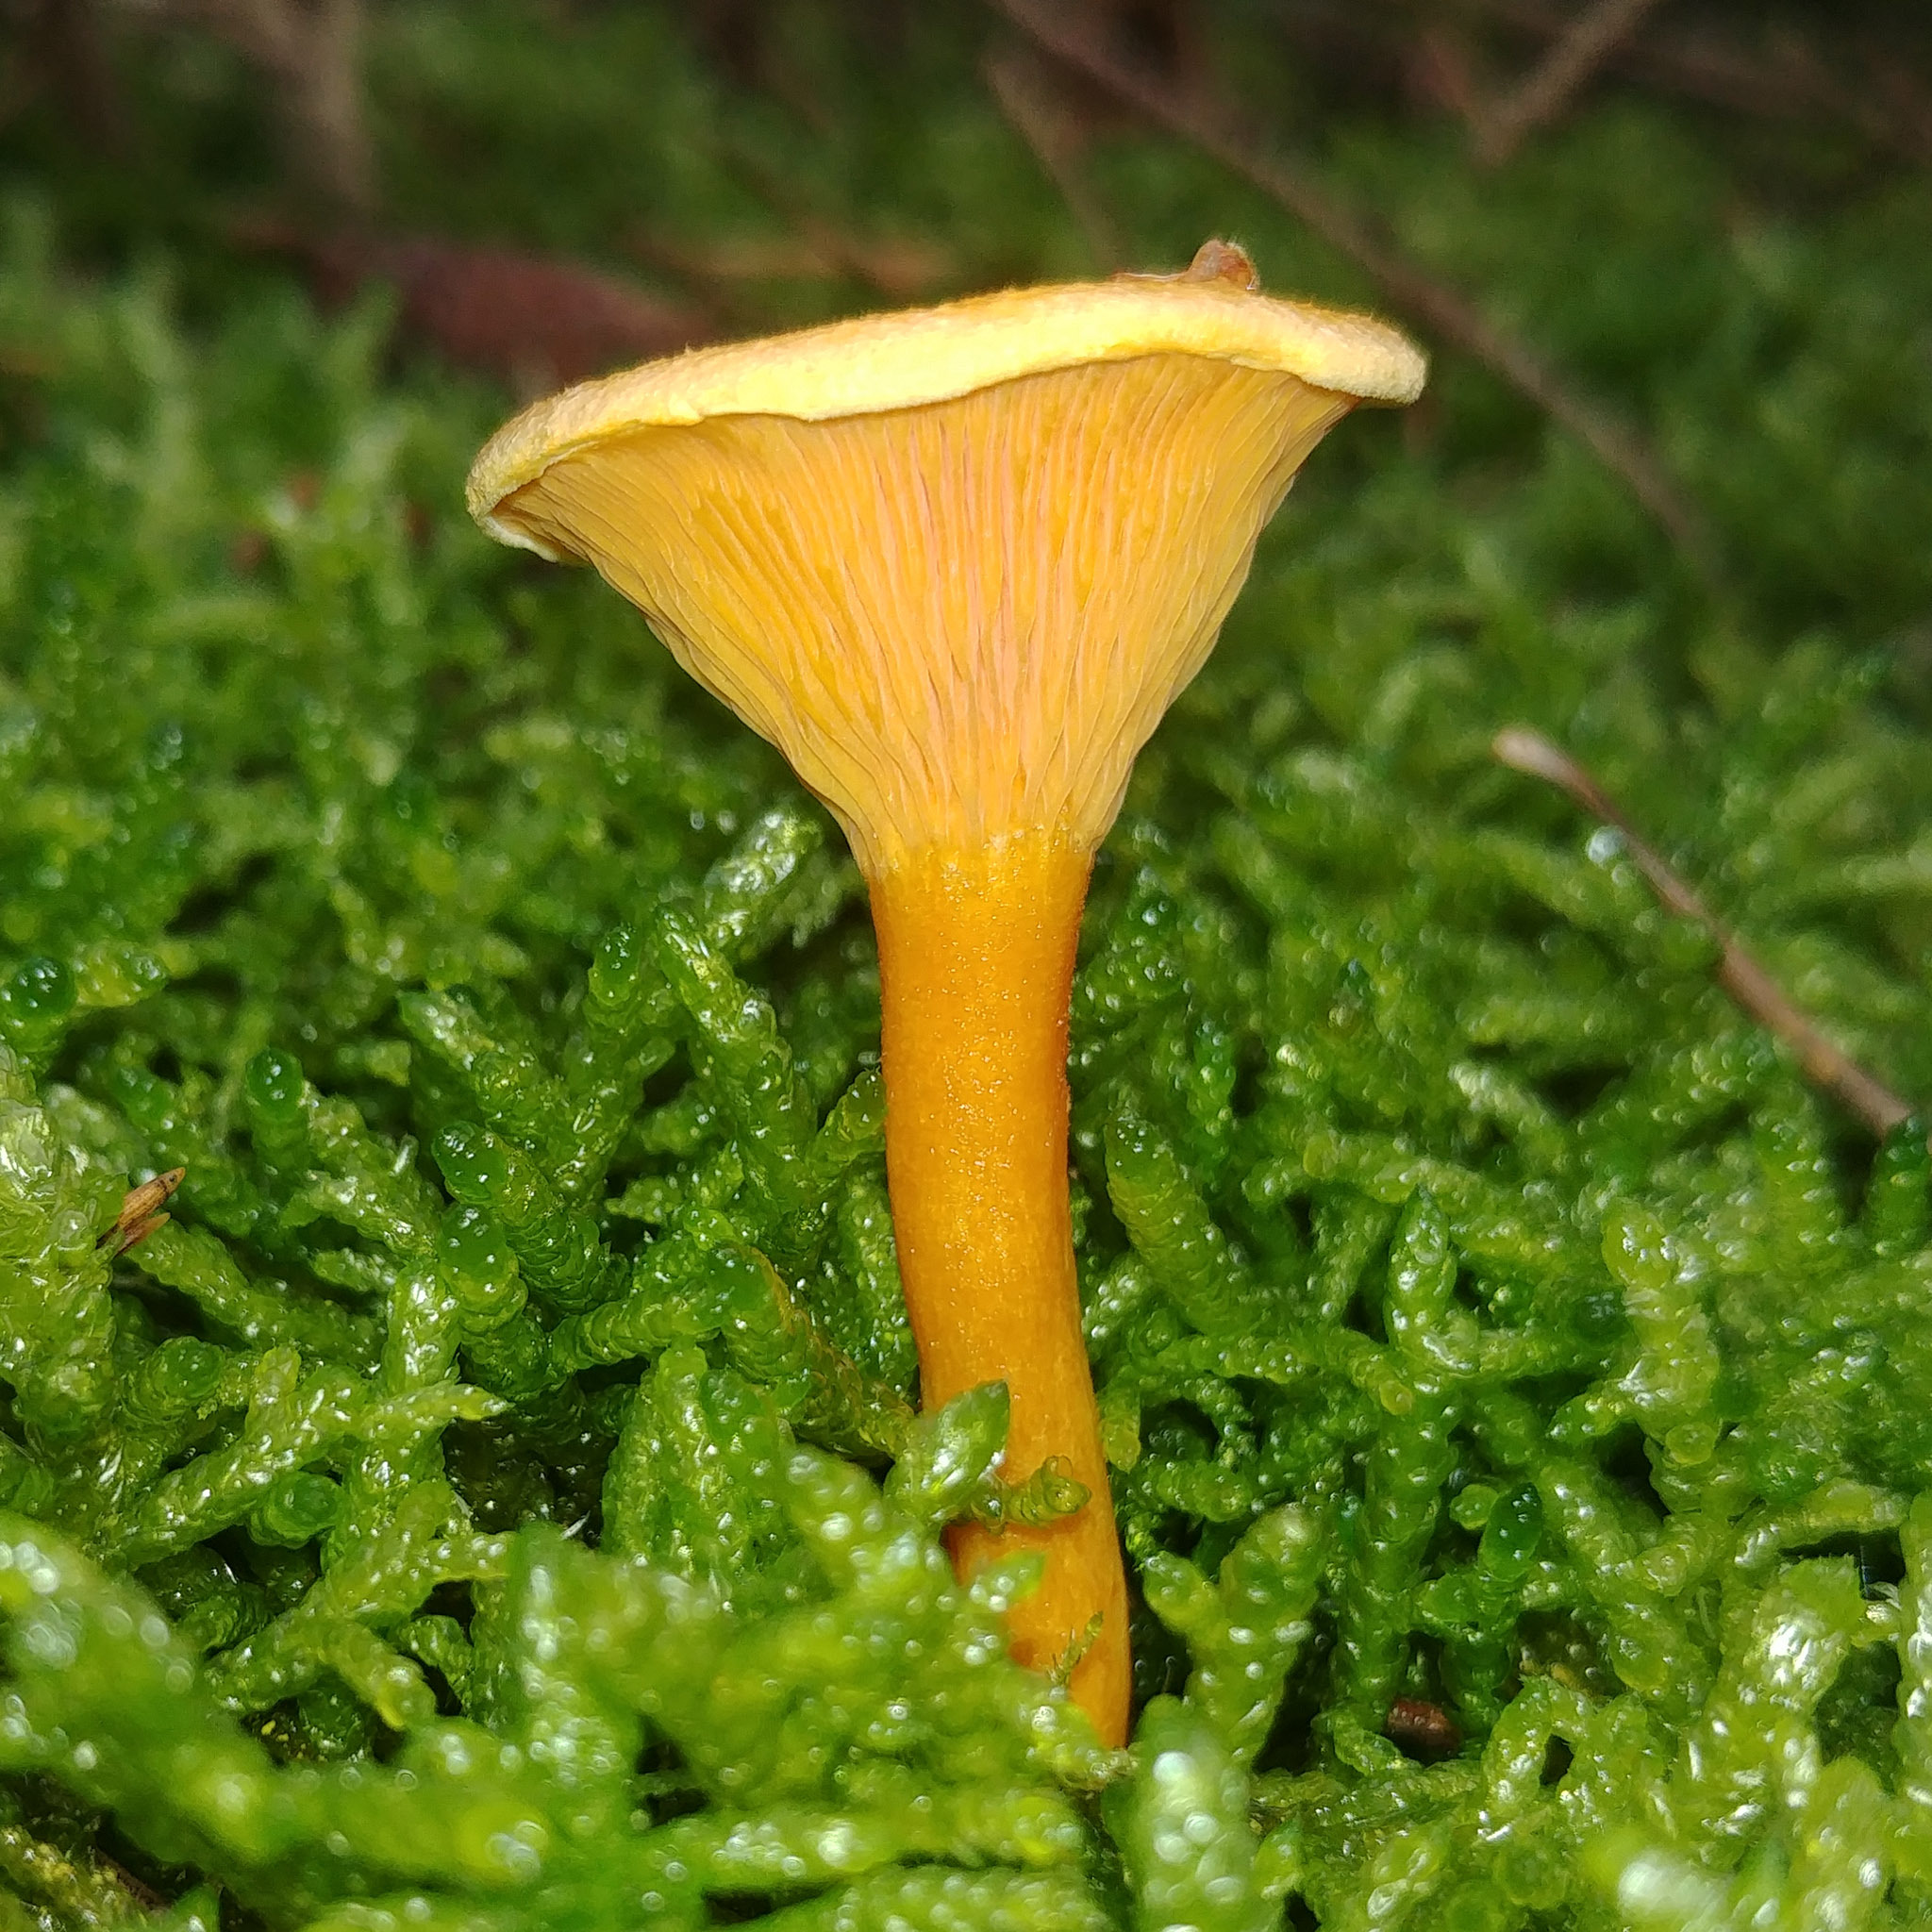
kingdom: Fungi
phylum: Basidiomycota
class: Agaricomycetes
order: Boletales
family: Hygrophoropsidaceae
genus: Hygrophoropsis
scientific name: Hygrophoropsis aurantiaca
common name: False chanterelle
